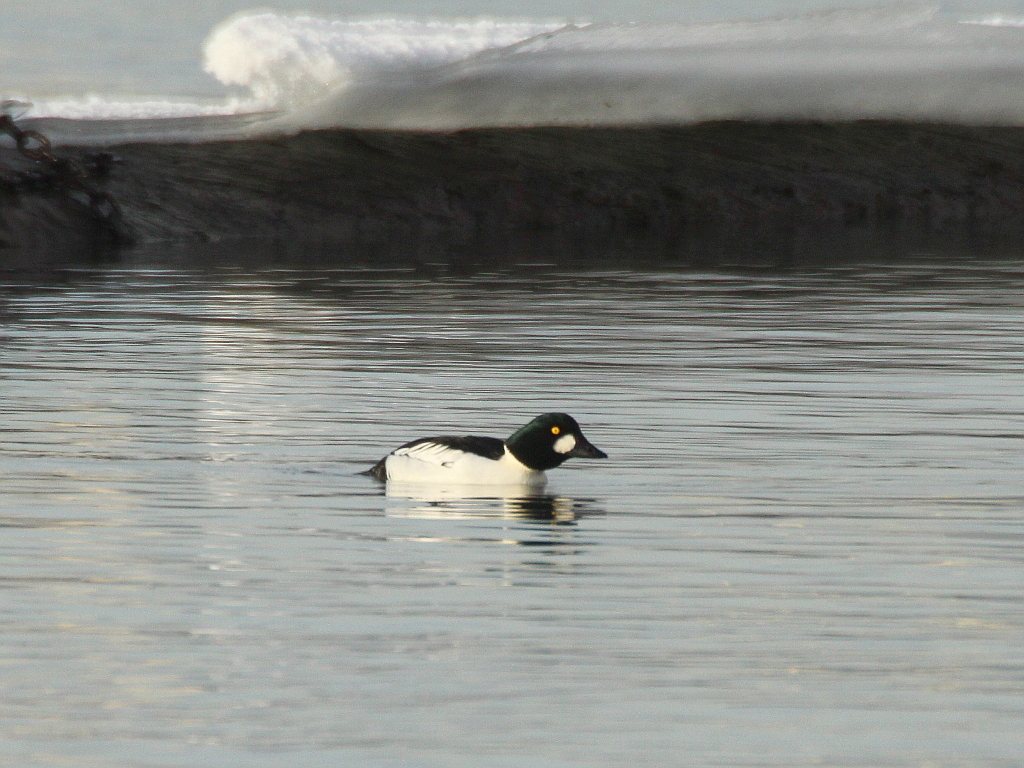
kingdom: Animalia
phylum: Chordata
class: Aves
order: Anseriformes
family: Anatidae
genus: Bucephala
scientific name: Bucephala clangula
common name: Common goldeneye
